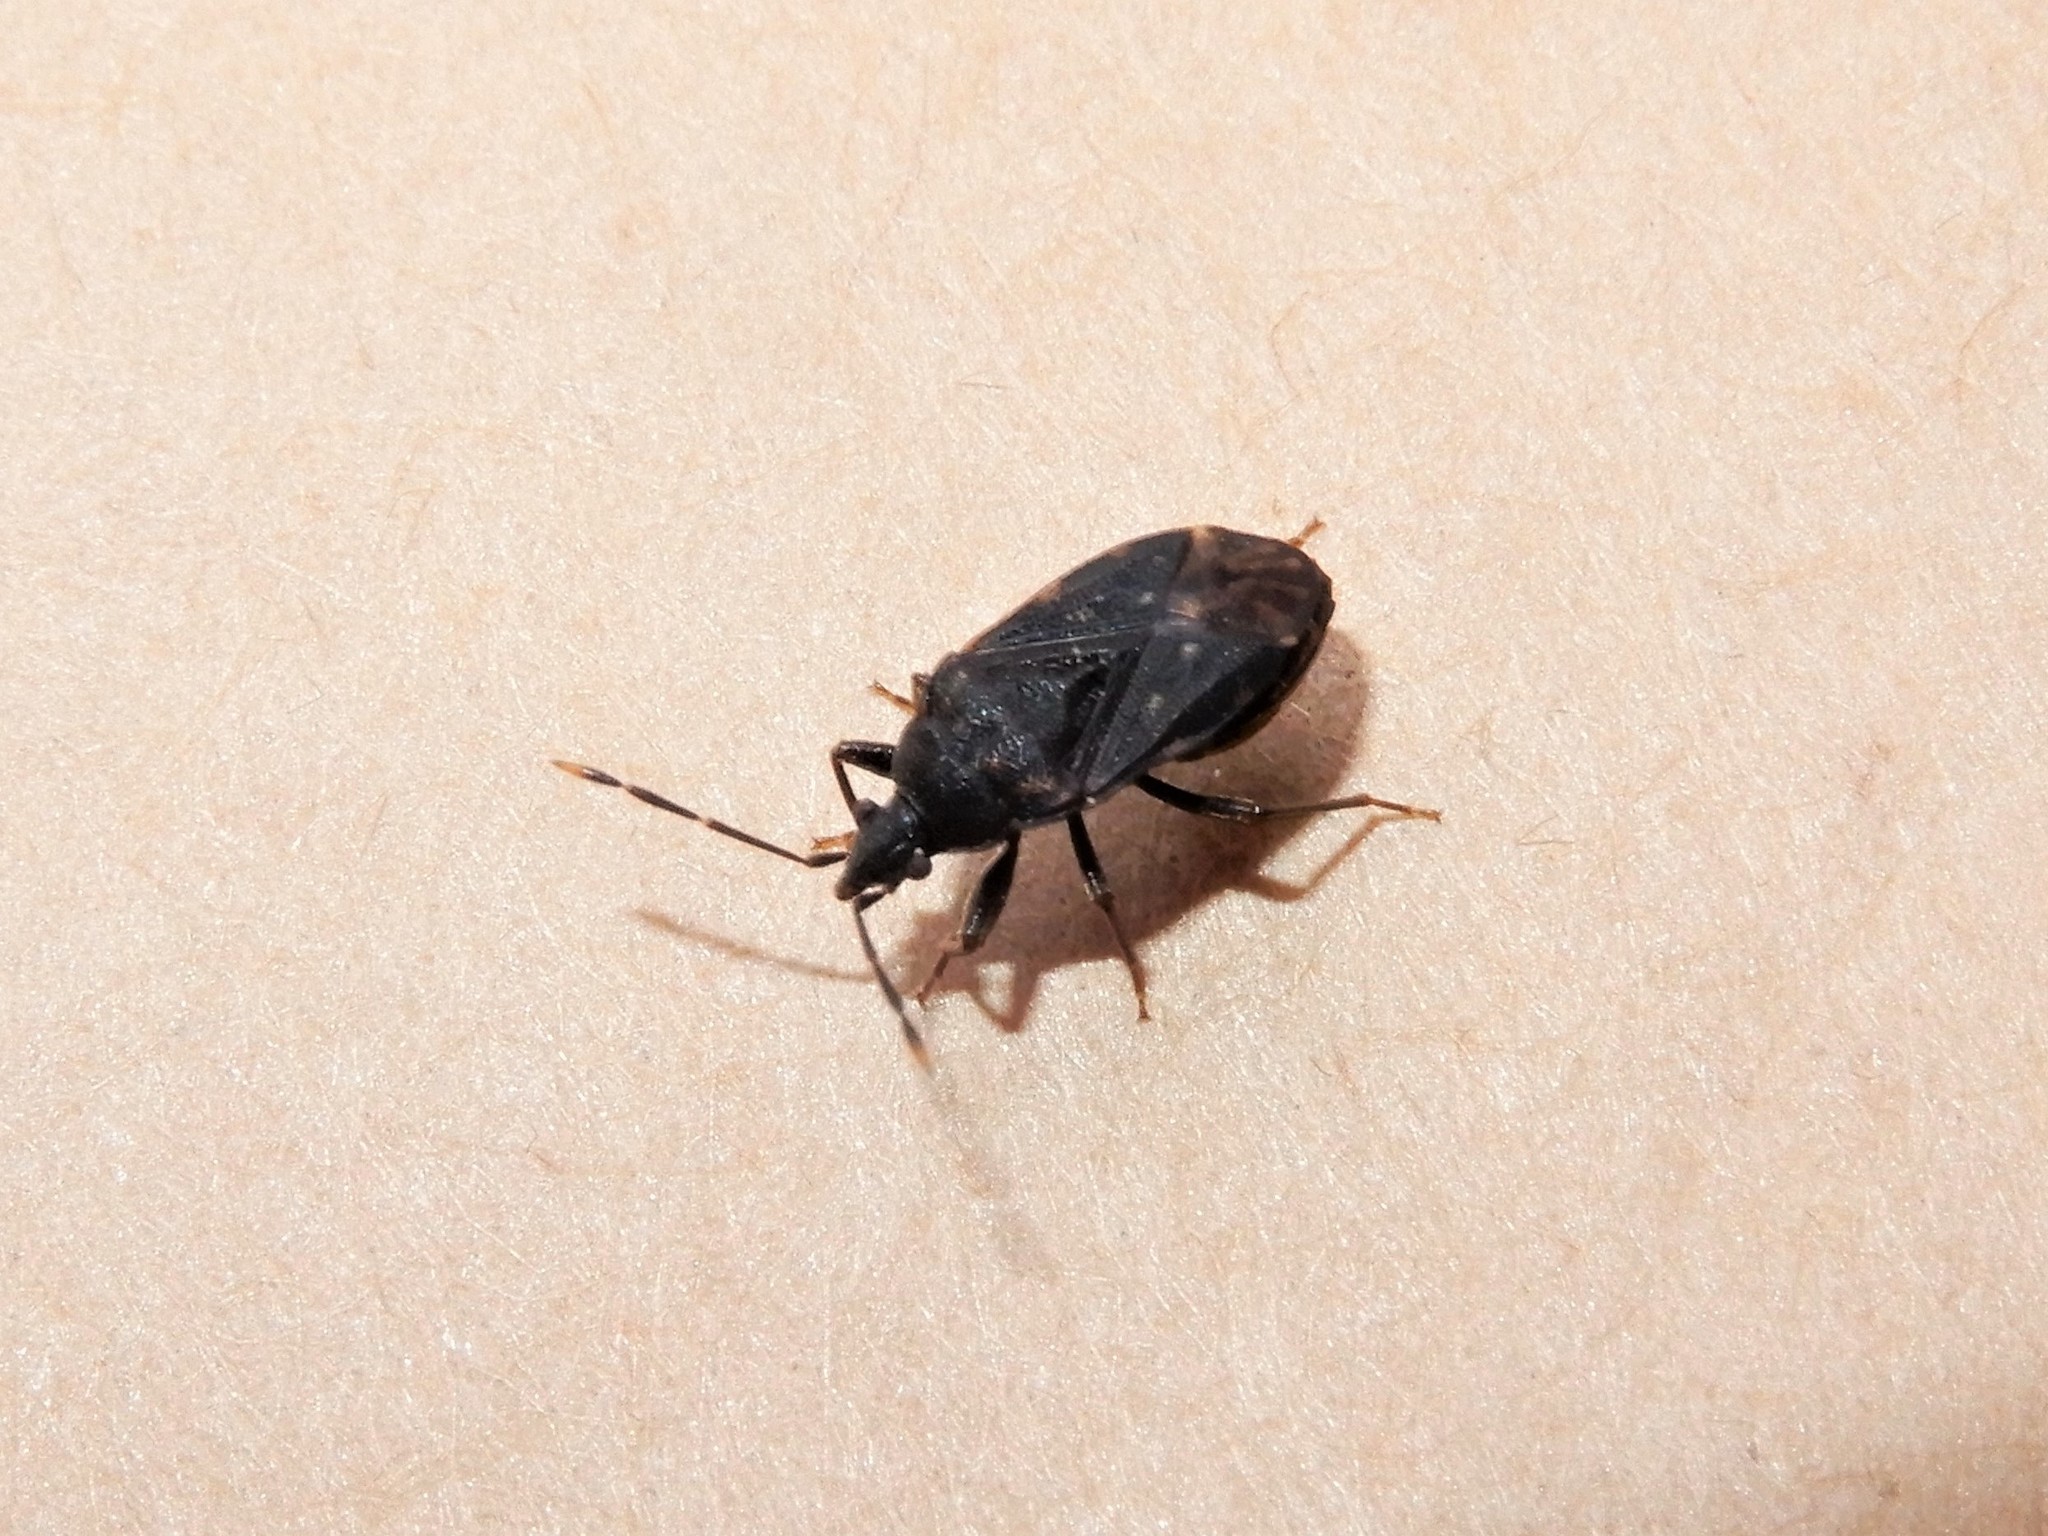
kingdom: Animalia
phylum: Arthropoda
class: Insecta
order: Hemiptera
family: Rhyparochromidae
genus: Paradrymus
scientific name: Paradrymus exilirostris
